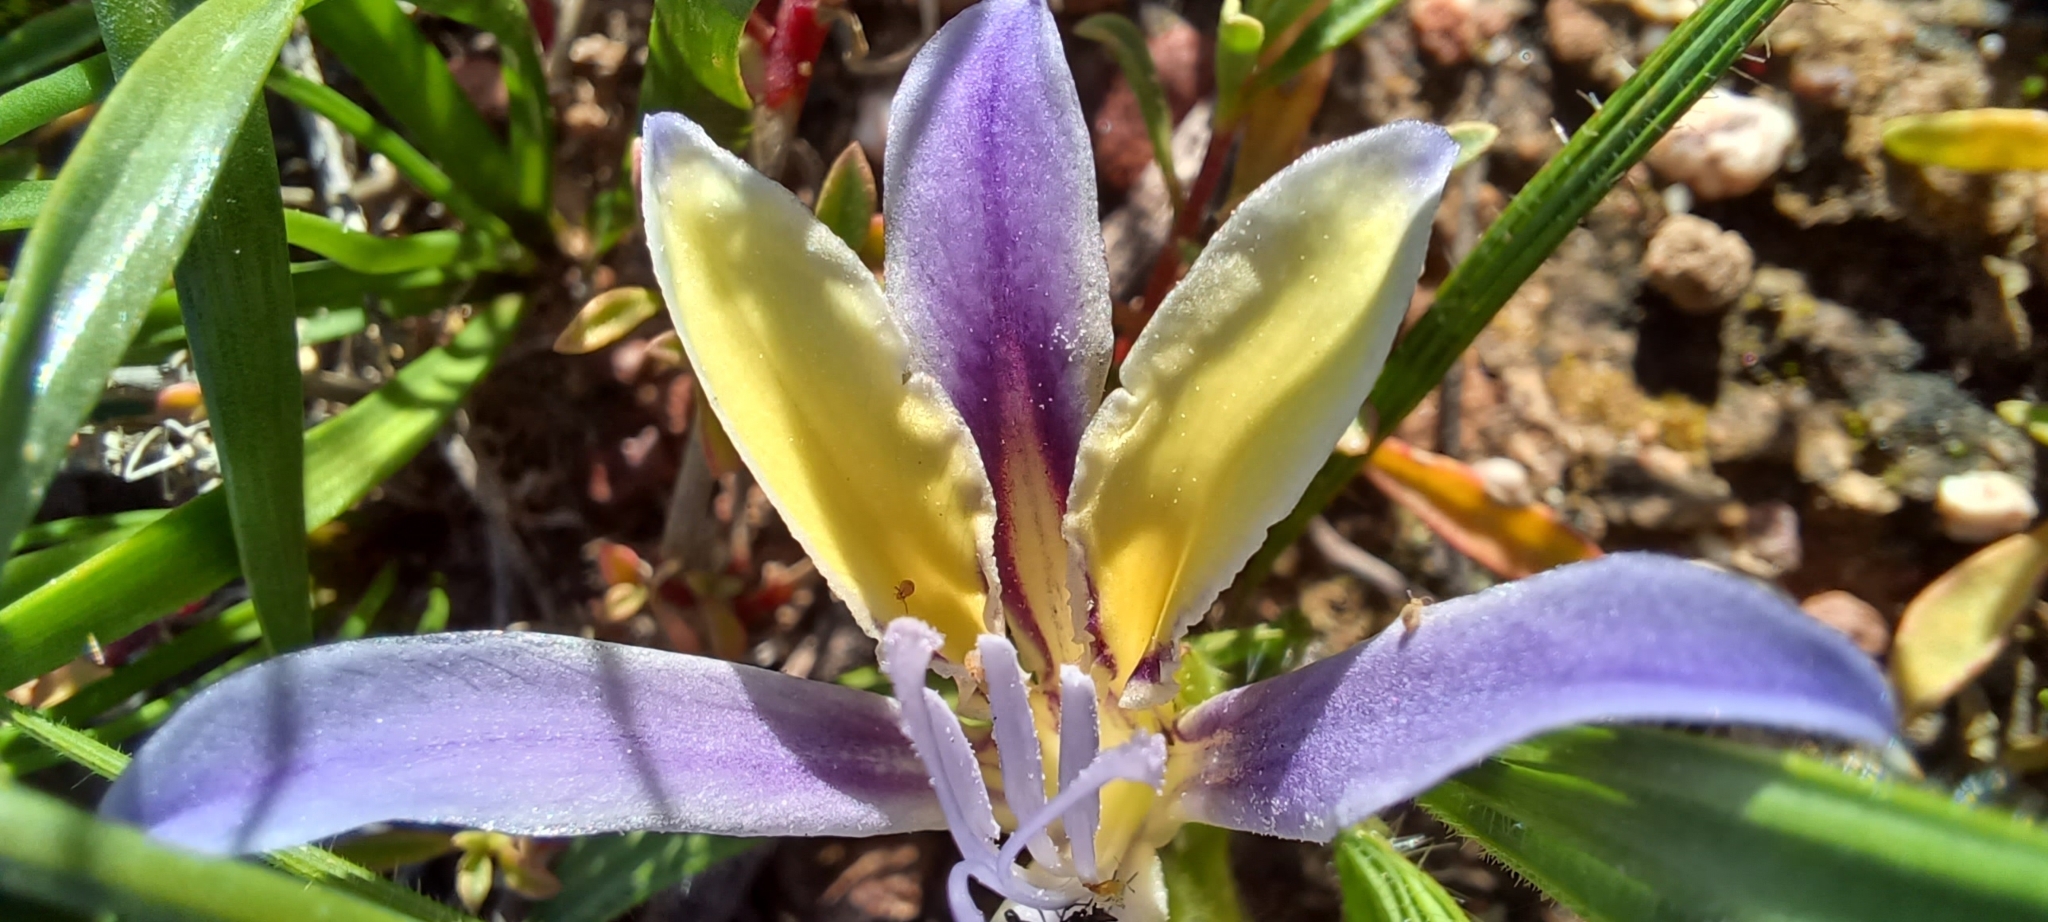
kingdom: Plantae
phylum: Tracheophyta
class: Liliopsida
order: Asparagales
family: Iridaceae
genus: Babiana
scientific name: Babiana patula
